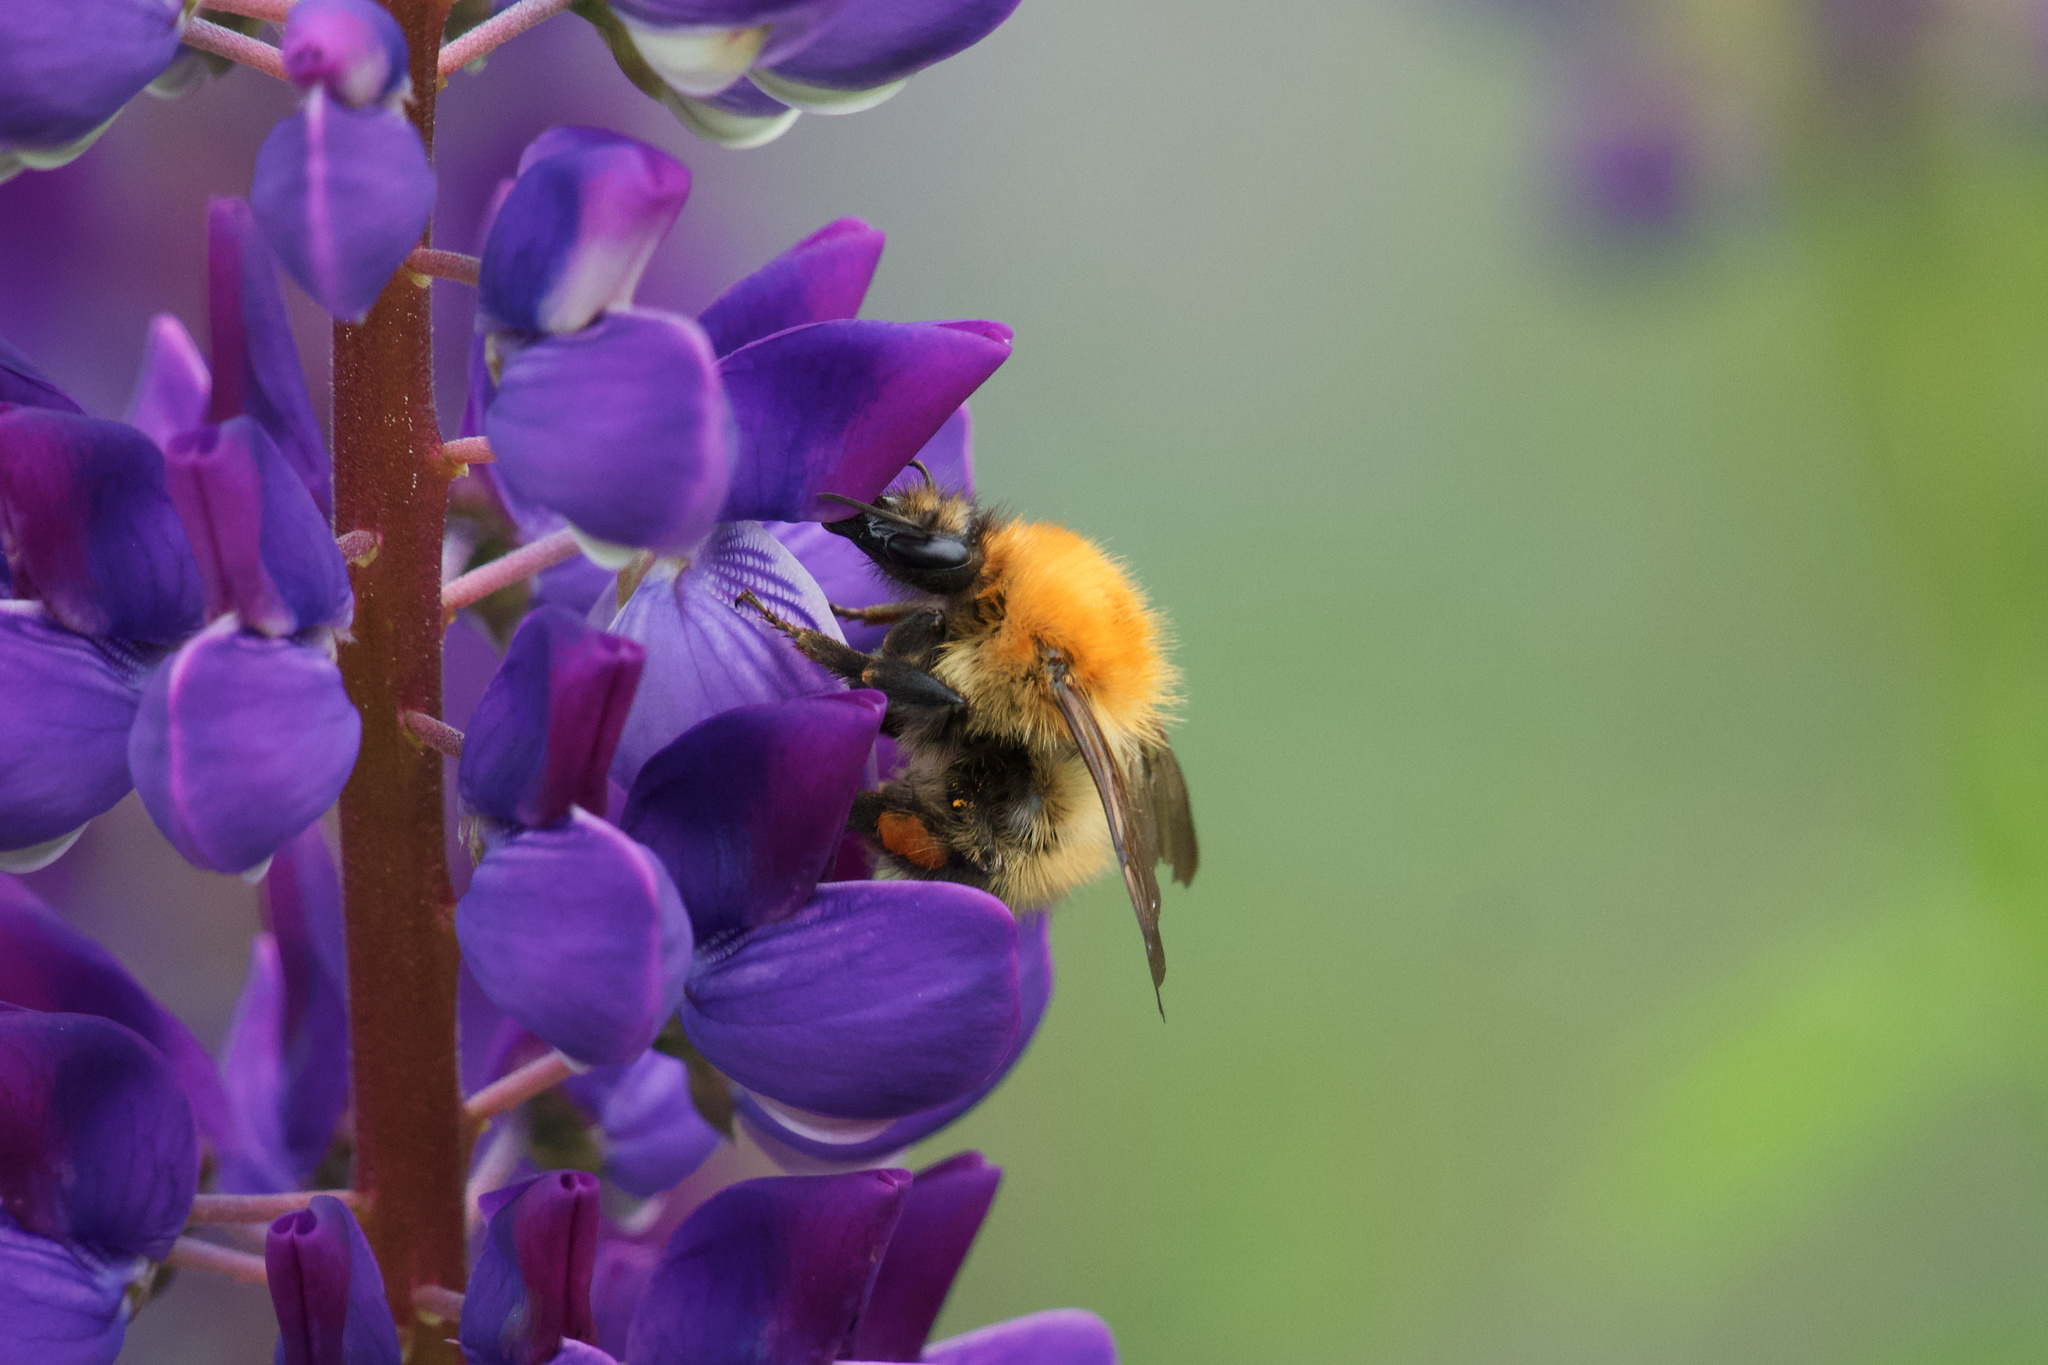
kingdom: Animalia
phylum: Arthropoda
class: Insecta
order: Hymenoptera
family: Apidae
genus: Bombus
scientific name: Bombus pascuorum
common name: Common carder bee
